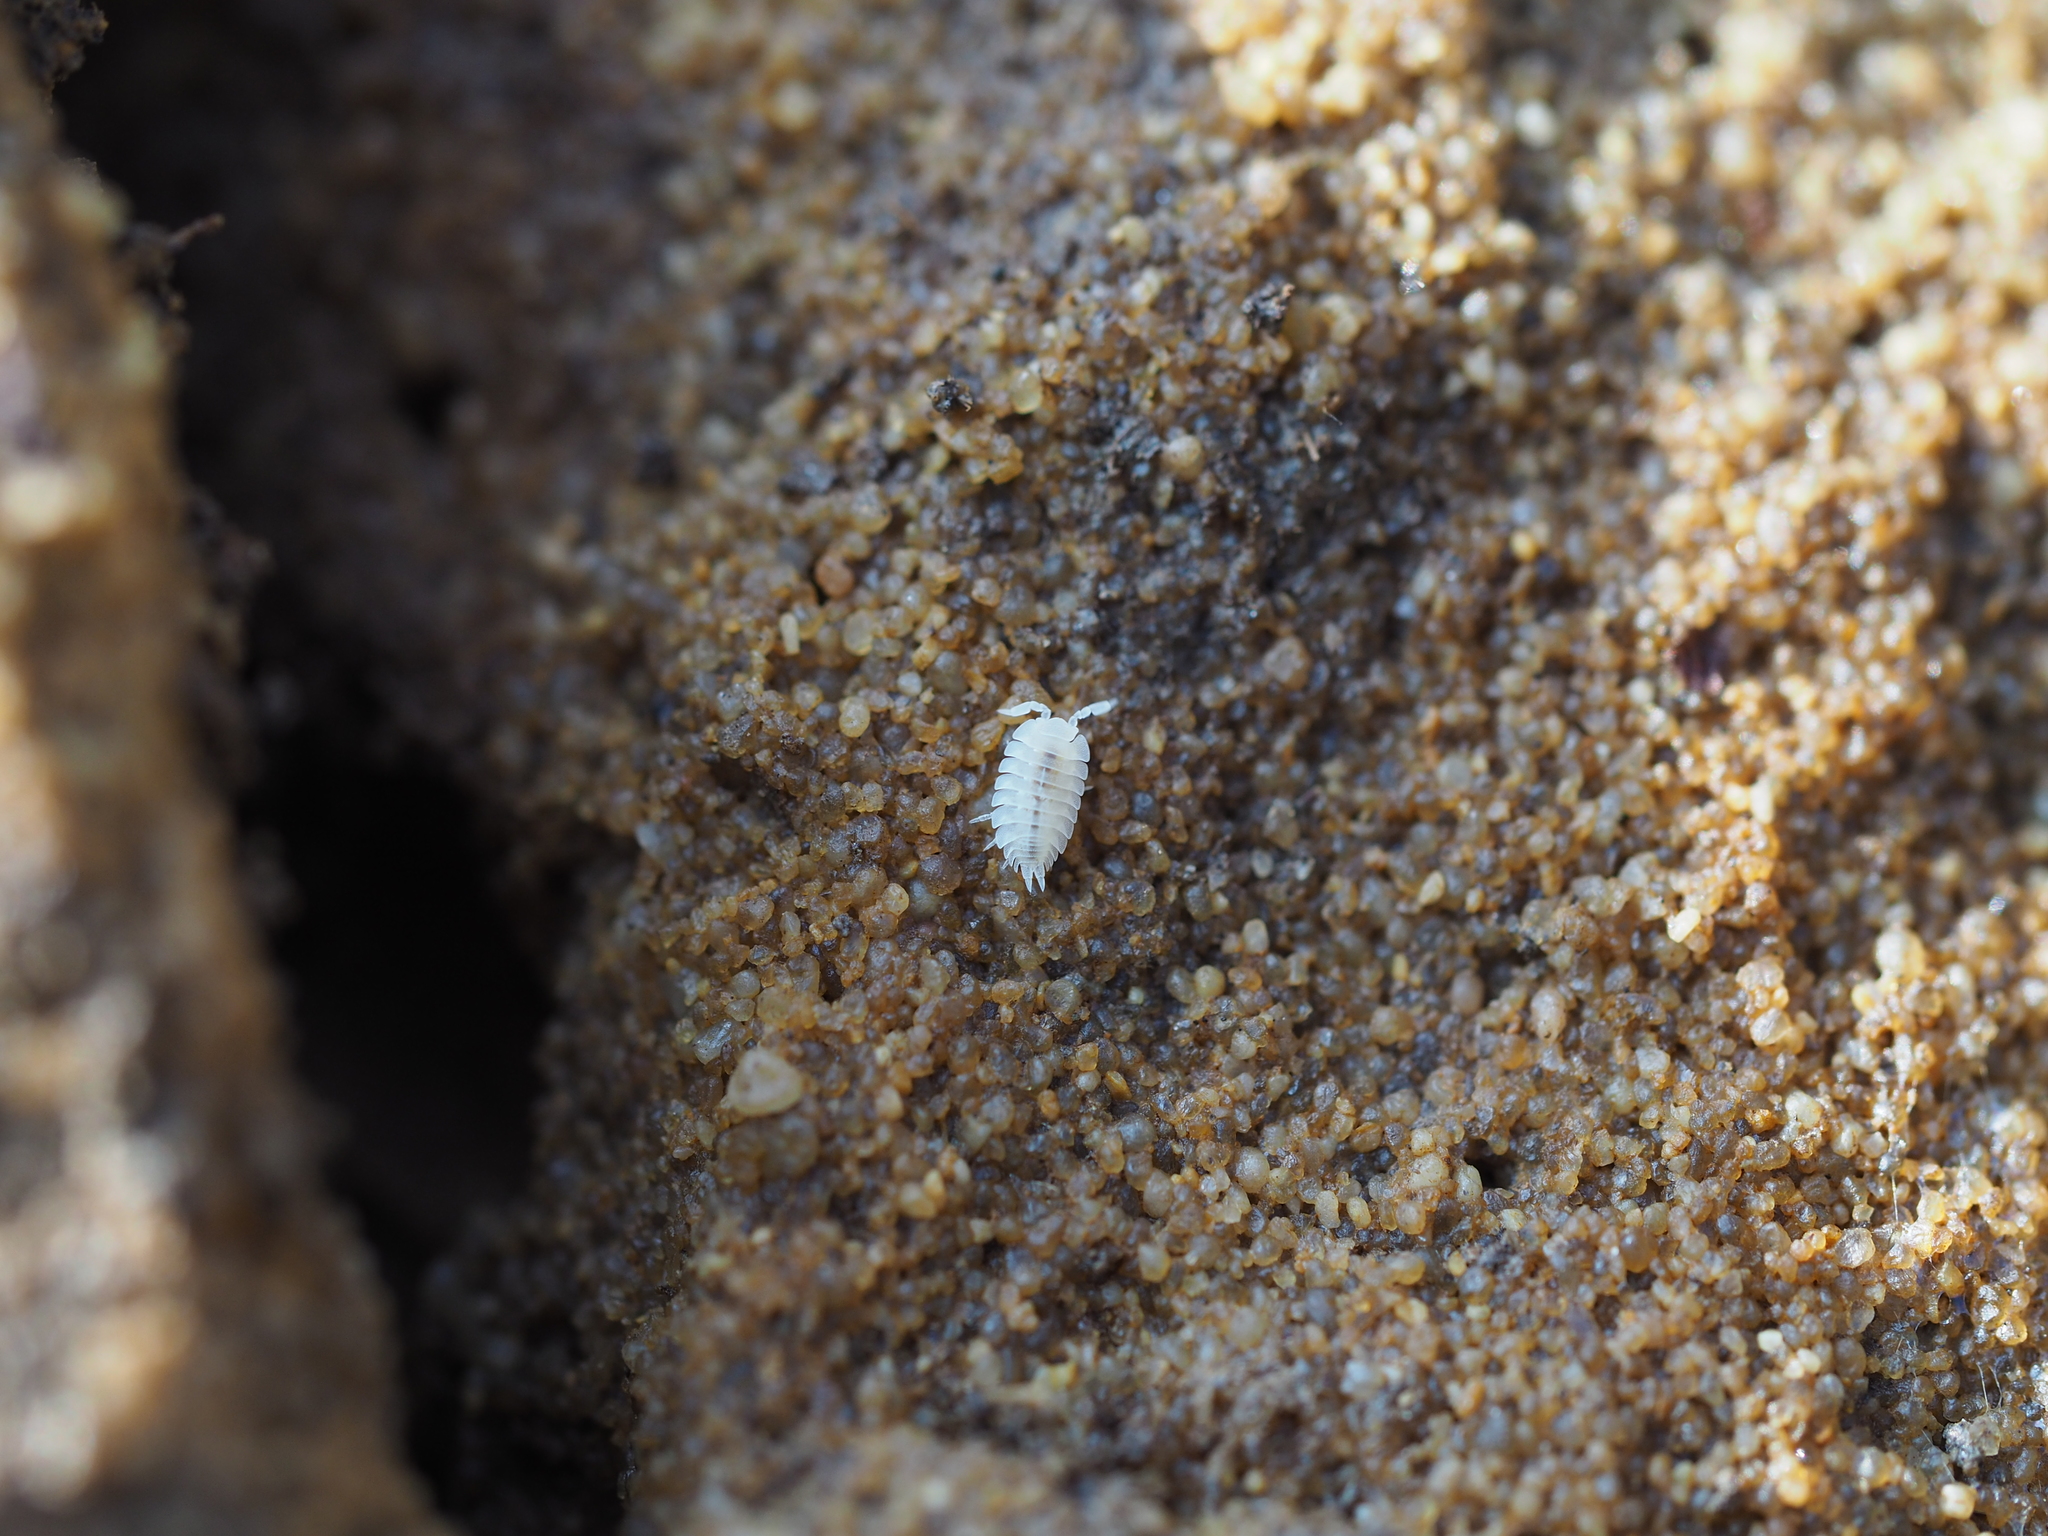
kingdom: Animalia
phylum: Arthropoda
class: Malacostraca
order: Isopoda
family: Platyarthridae
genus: Platyarthrus
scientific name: Platyarthrus hoffmannseggii
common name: Ant woodlouse
